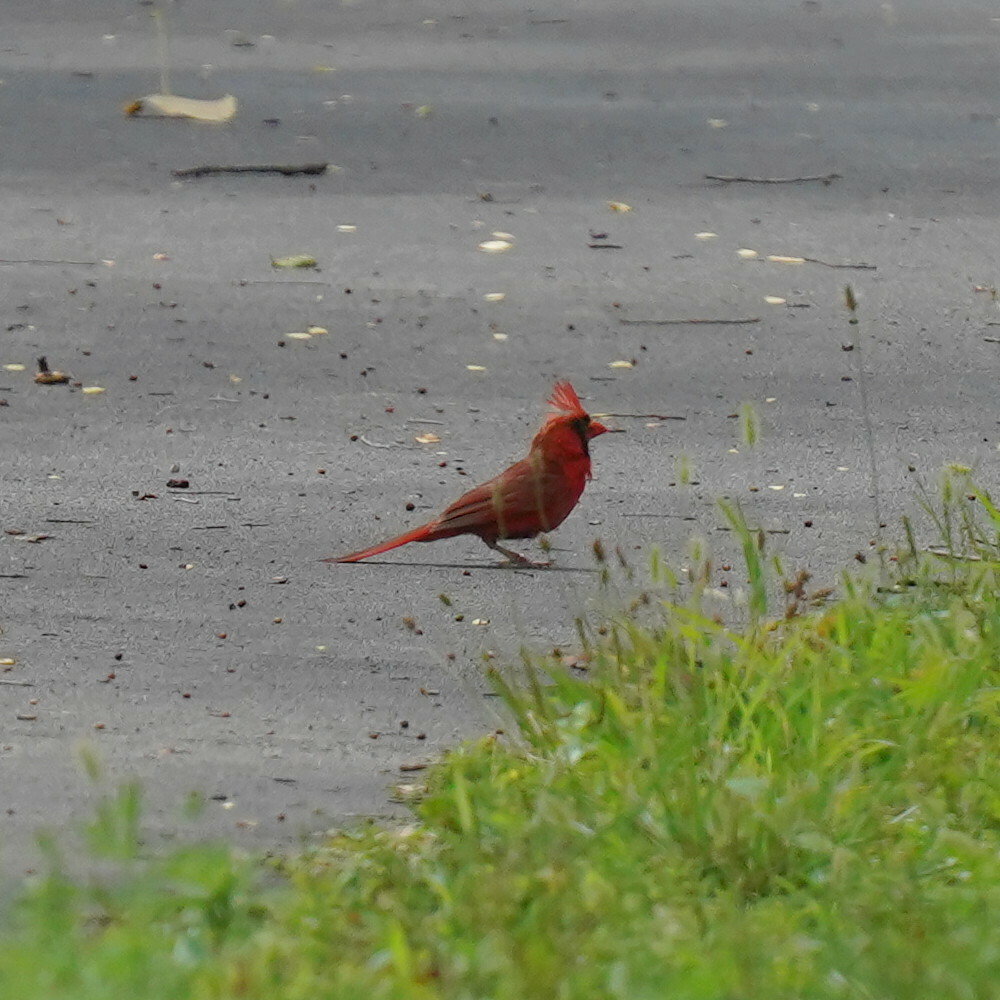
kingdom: Animalia
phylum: Chordata
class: Aves
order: Passeriformes
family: Cardinalidae
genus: Cardinalis
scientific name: Cardinalis cardinalis
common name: Northern cardinal
